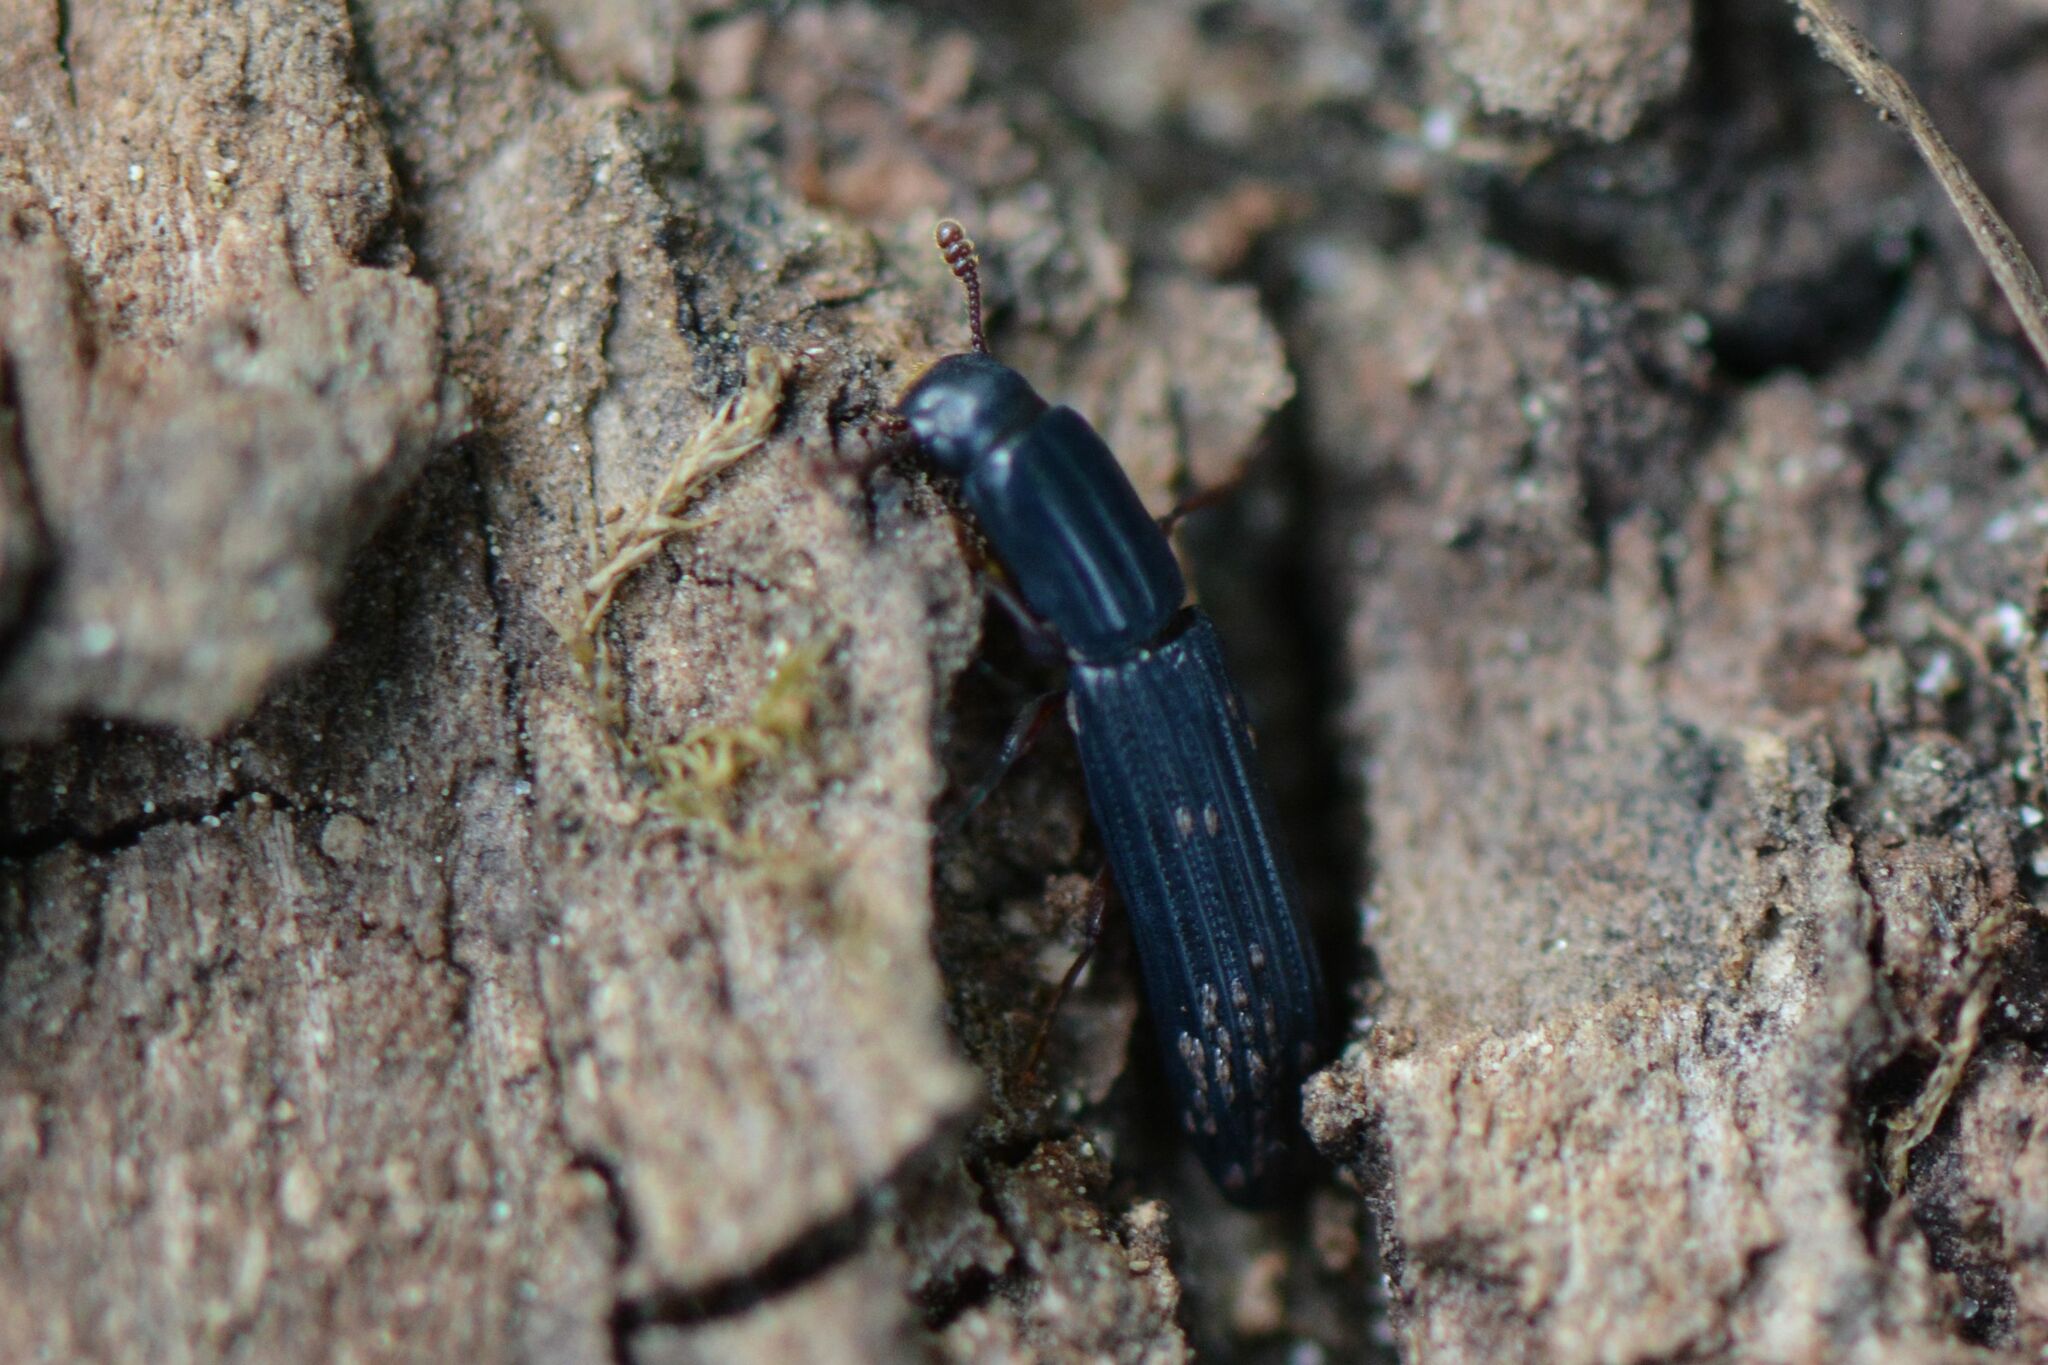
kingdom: Animalia
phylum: Arthropoda
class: Insecta
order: Coleoptera
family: Zopheridae
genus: Colydium
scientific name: Colydium elongatum
